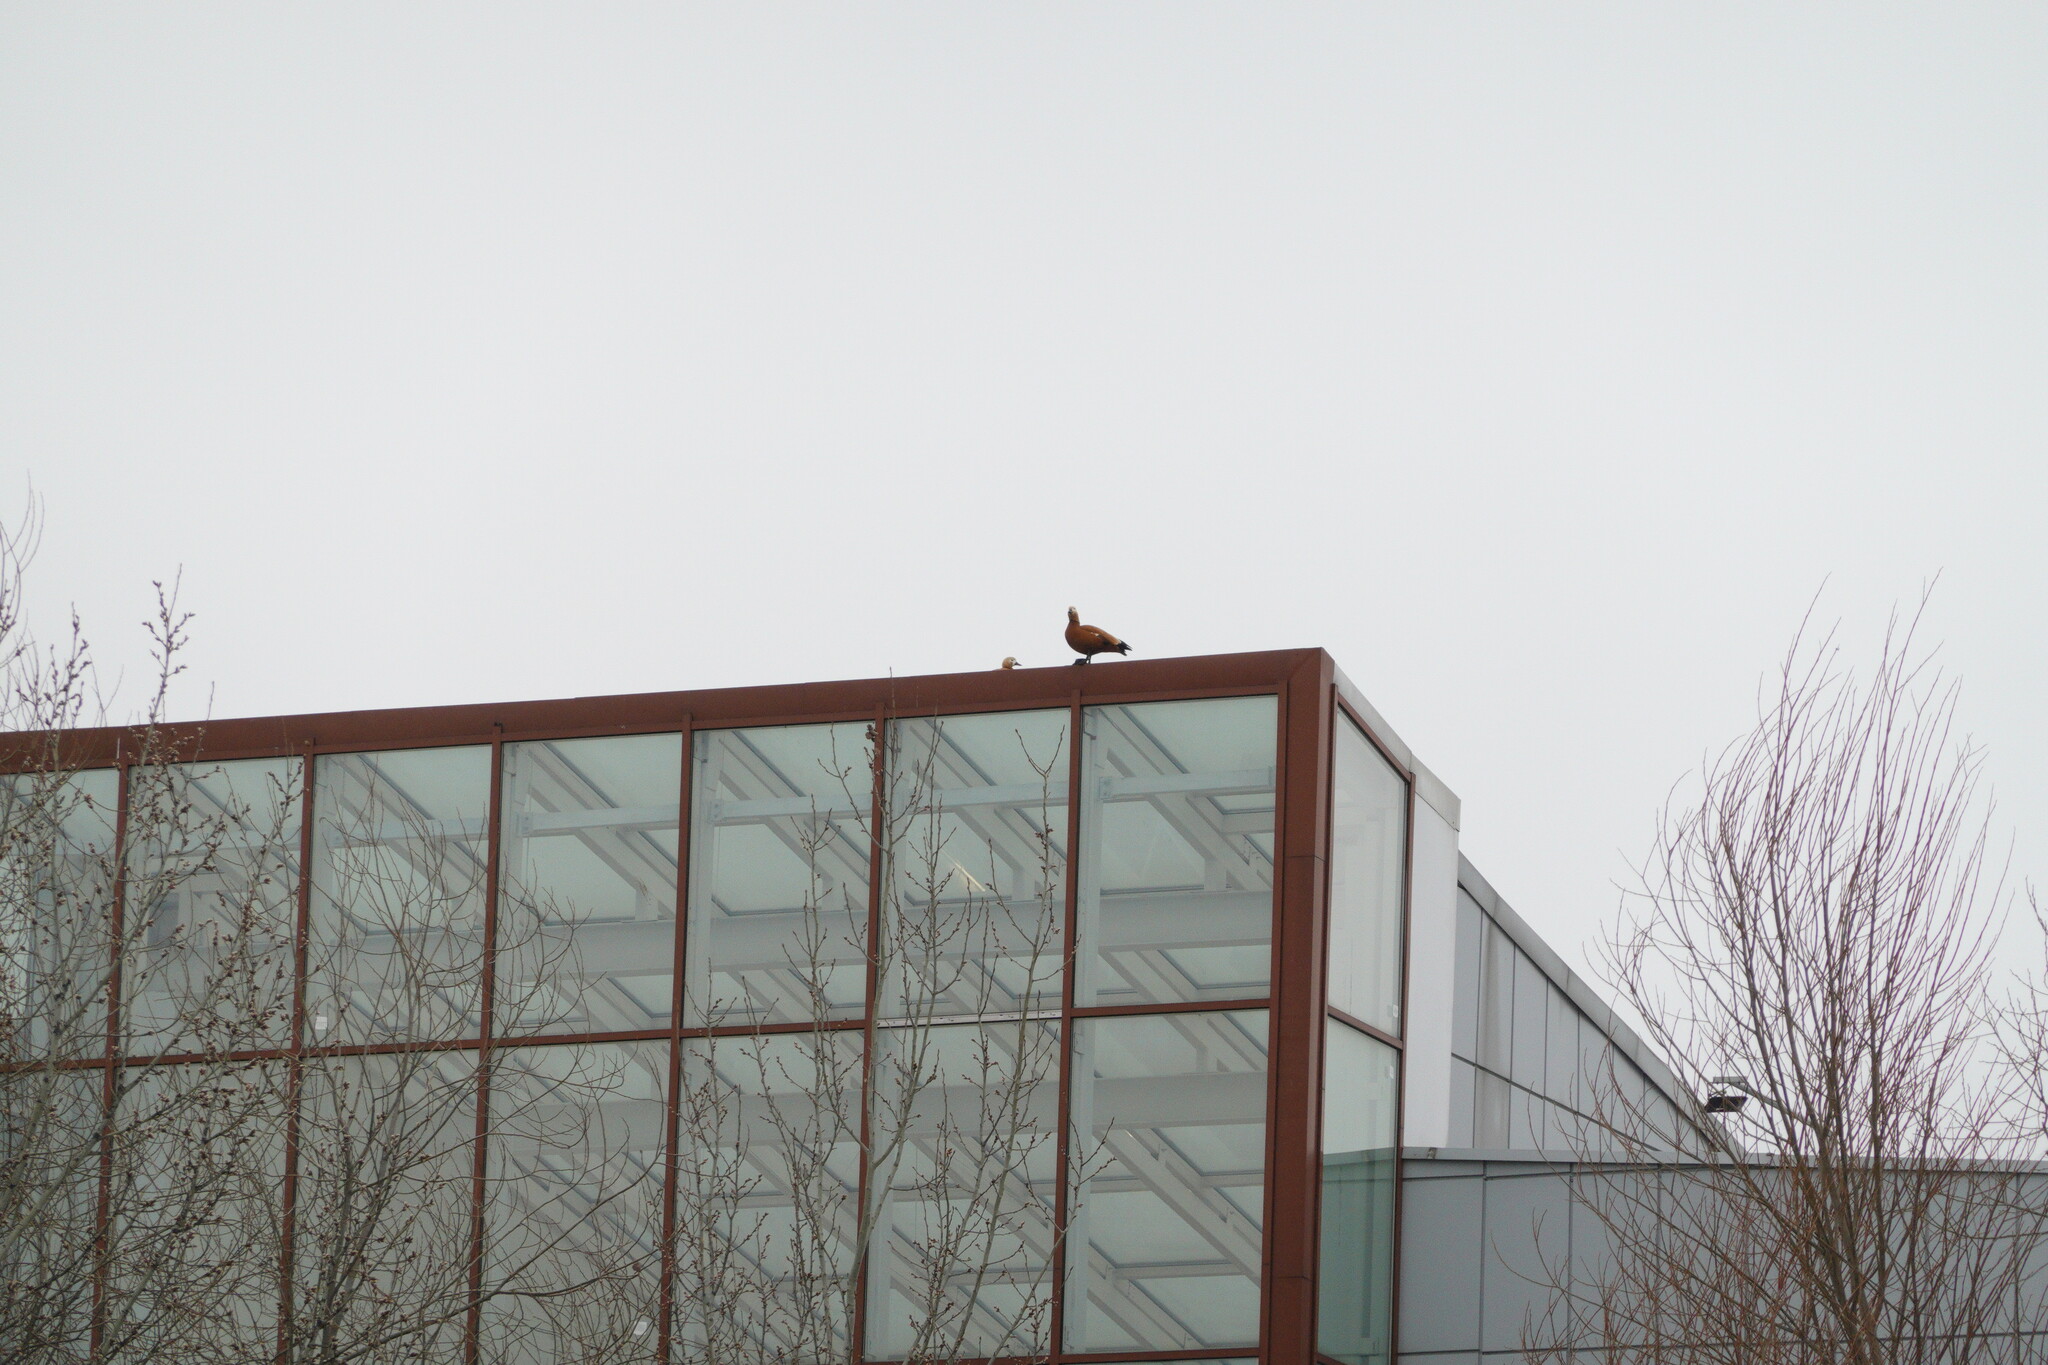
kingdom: Animalia
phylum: Chordata
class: Aves
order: Anseriformes
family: Anatidae
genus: Tadorna
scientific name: Tadorna ferruginea
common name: Ruddy shelduck
